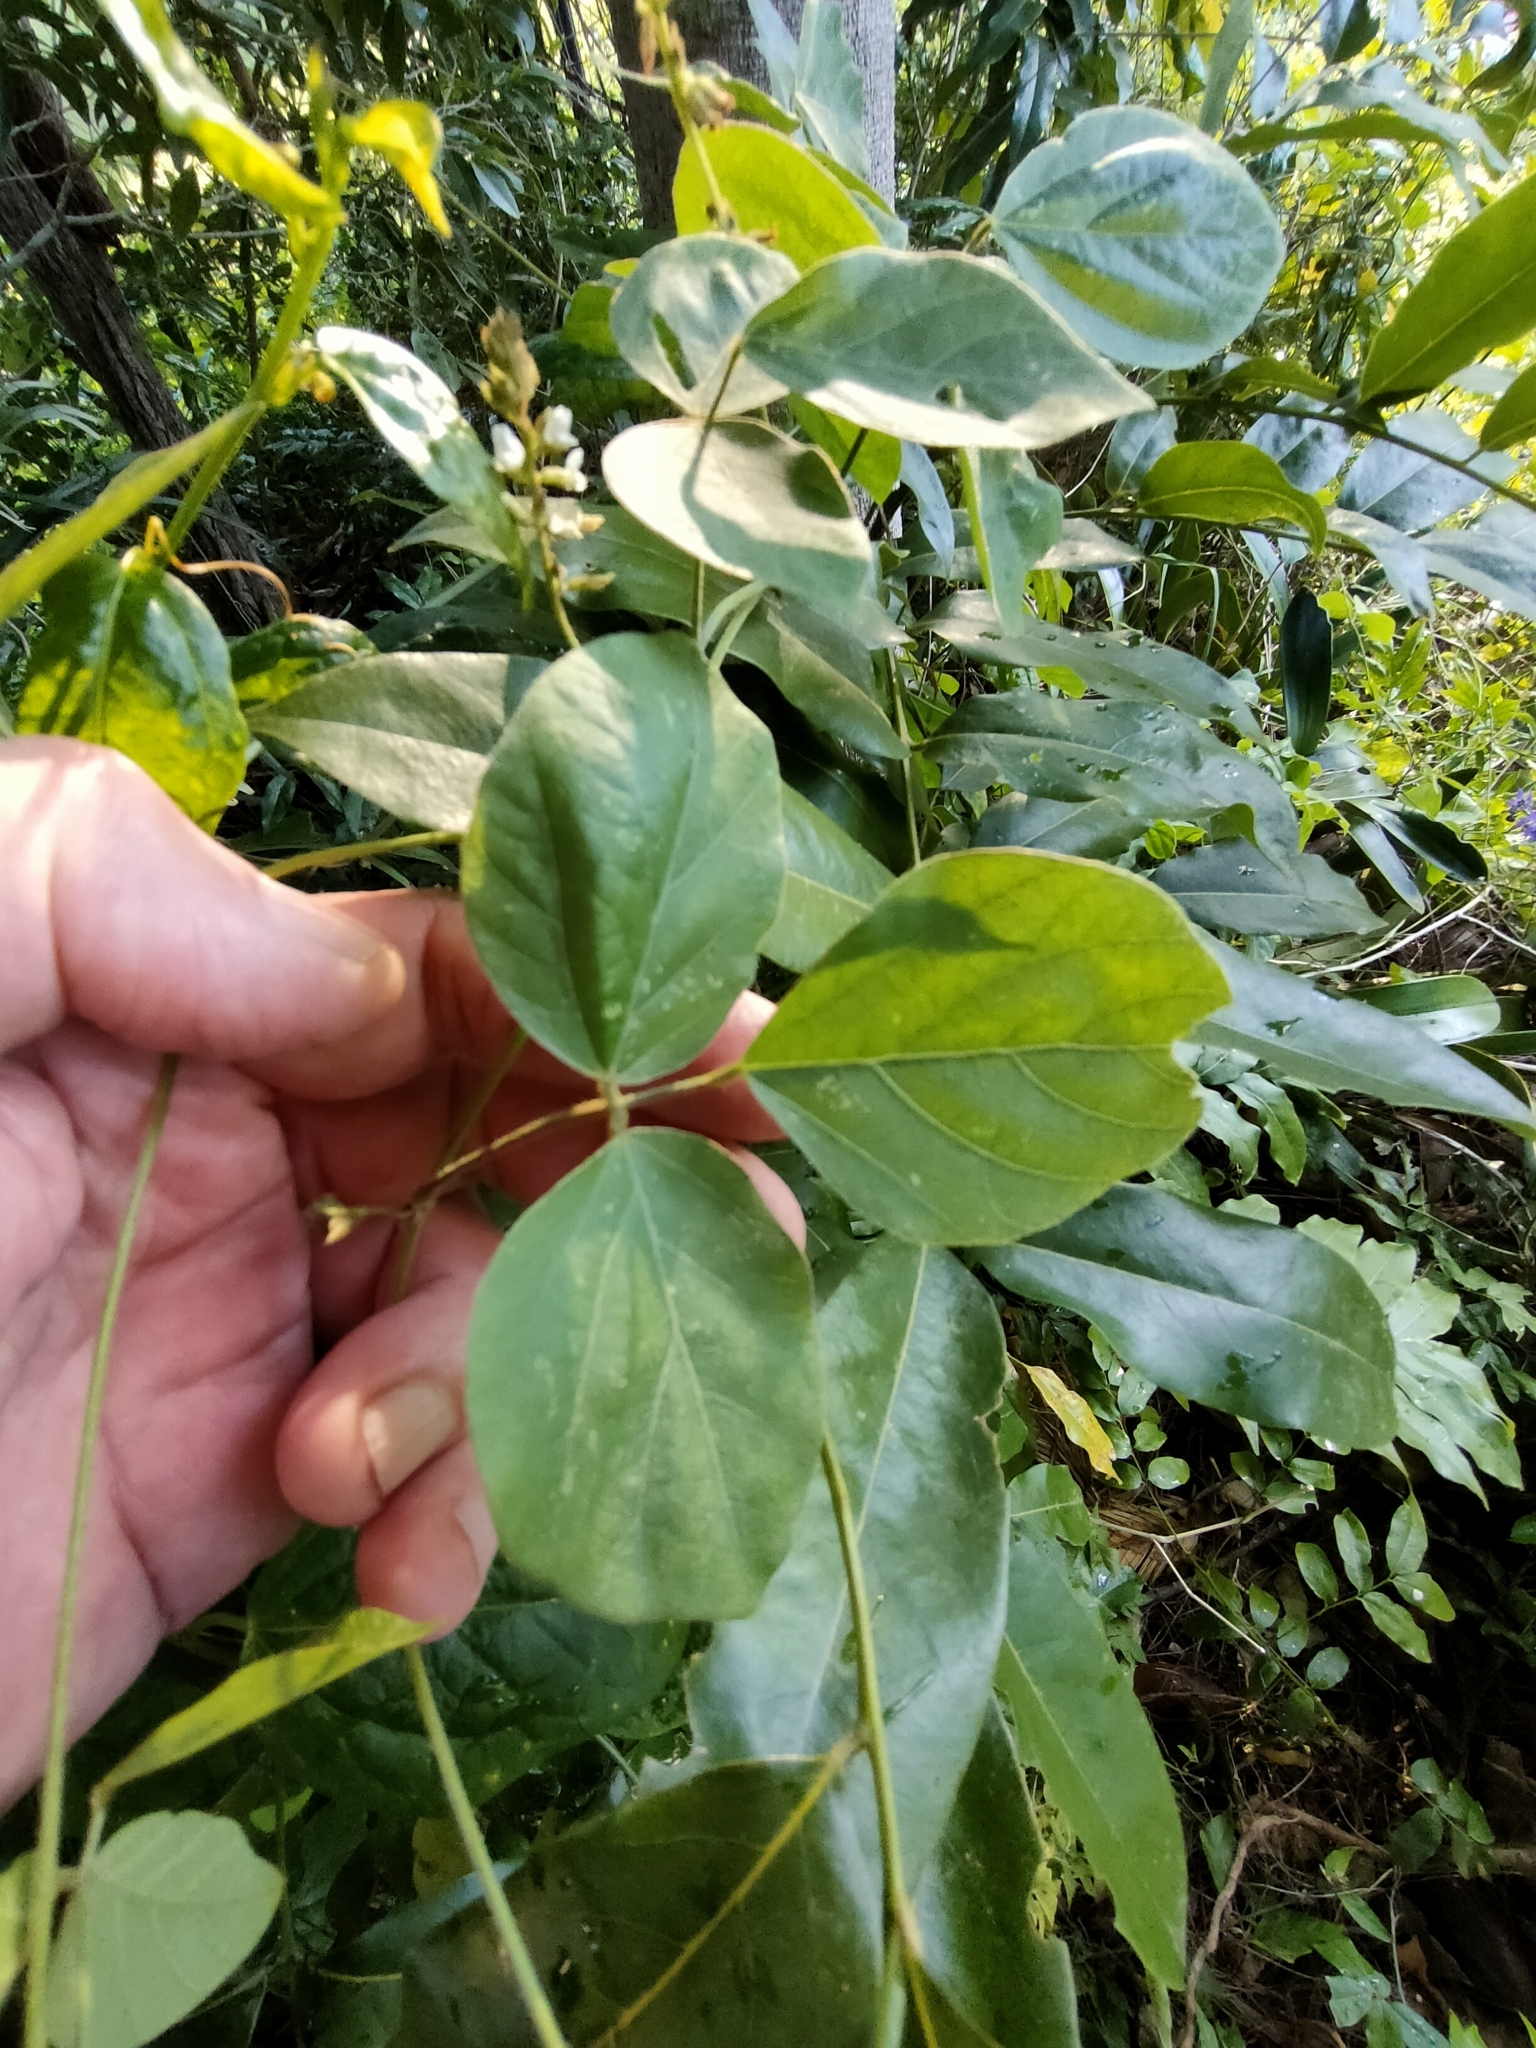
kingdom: Plantae
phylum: Tracheophyta
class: Magnoliopsida
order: Fabales
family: Fabaceae
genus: Neonotonia
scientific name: Neonotonia wightii
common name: Perennial soybean
